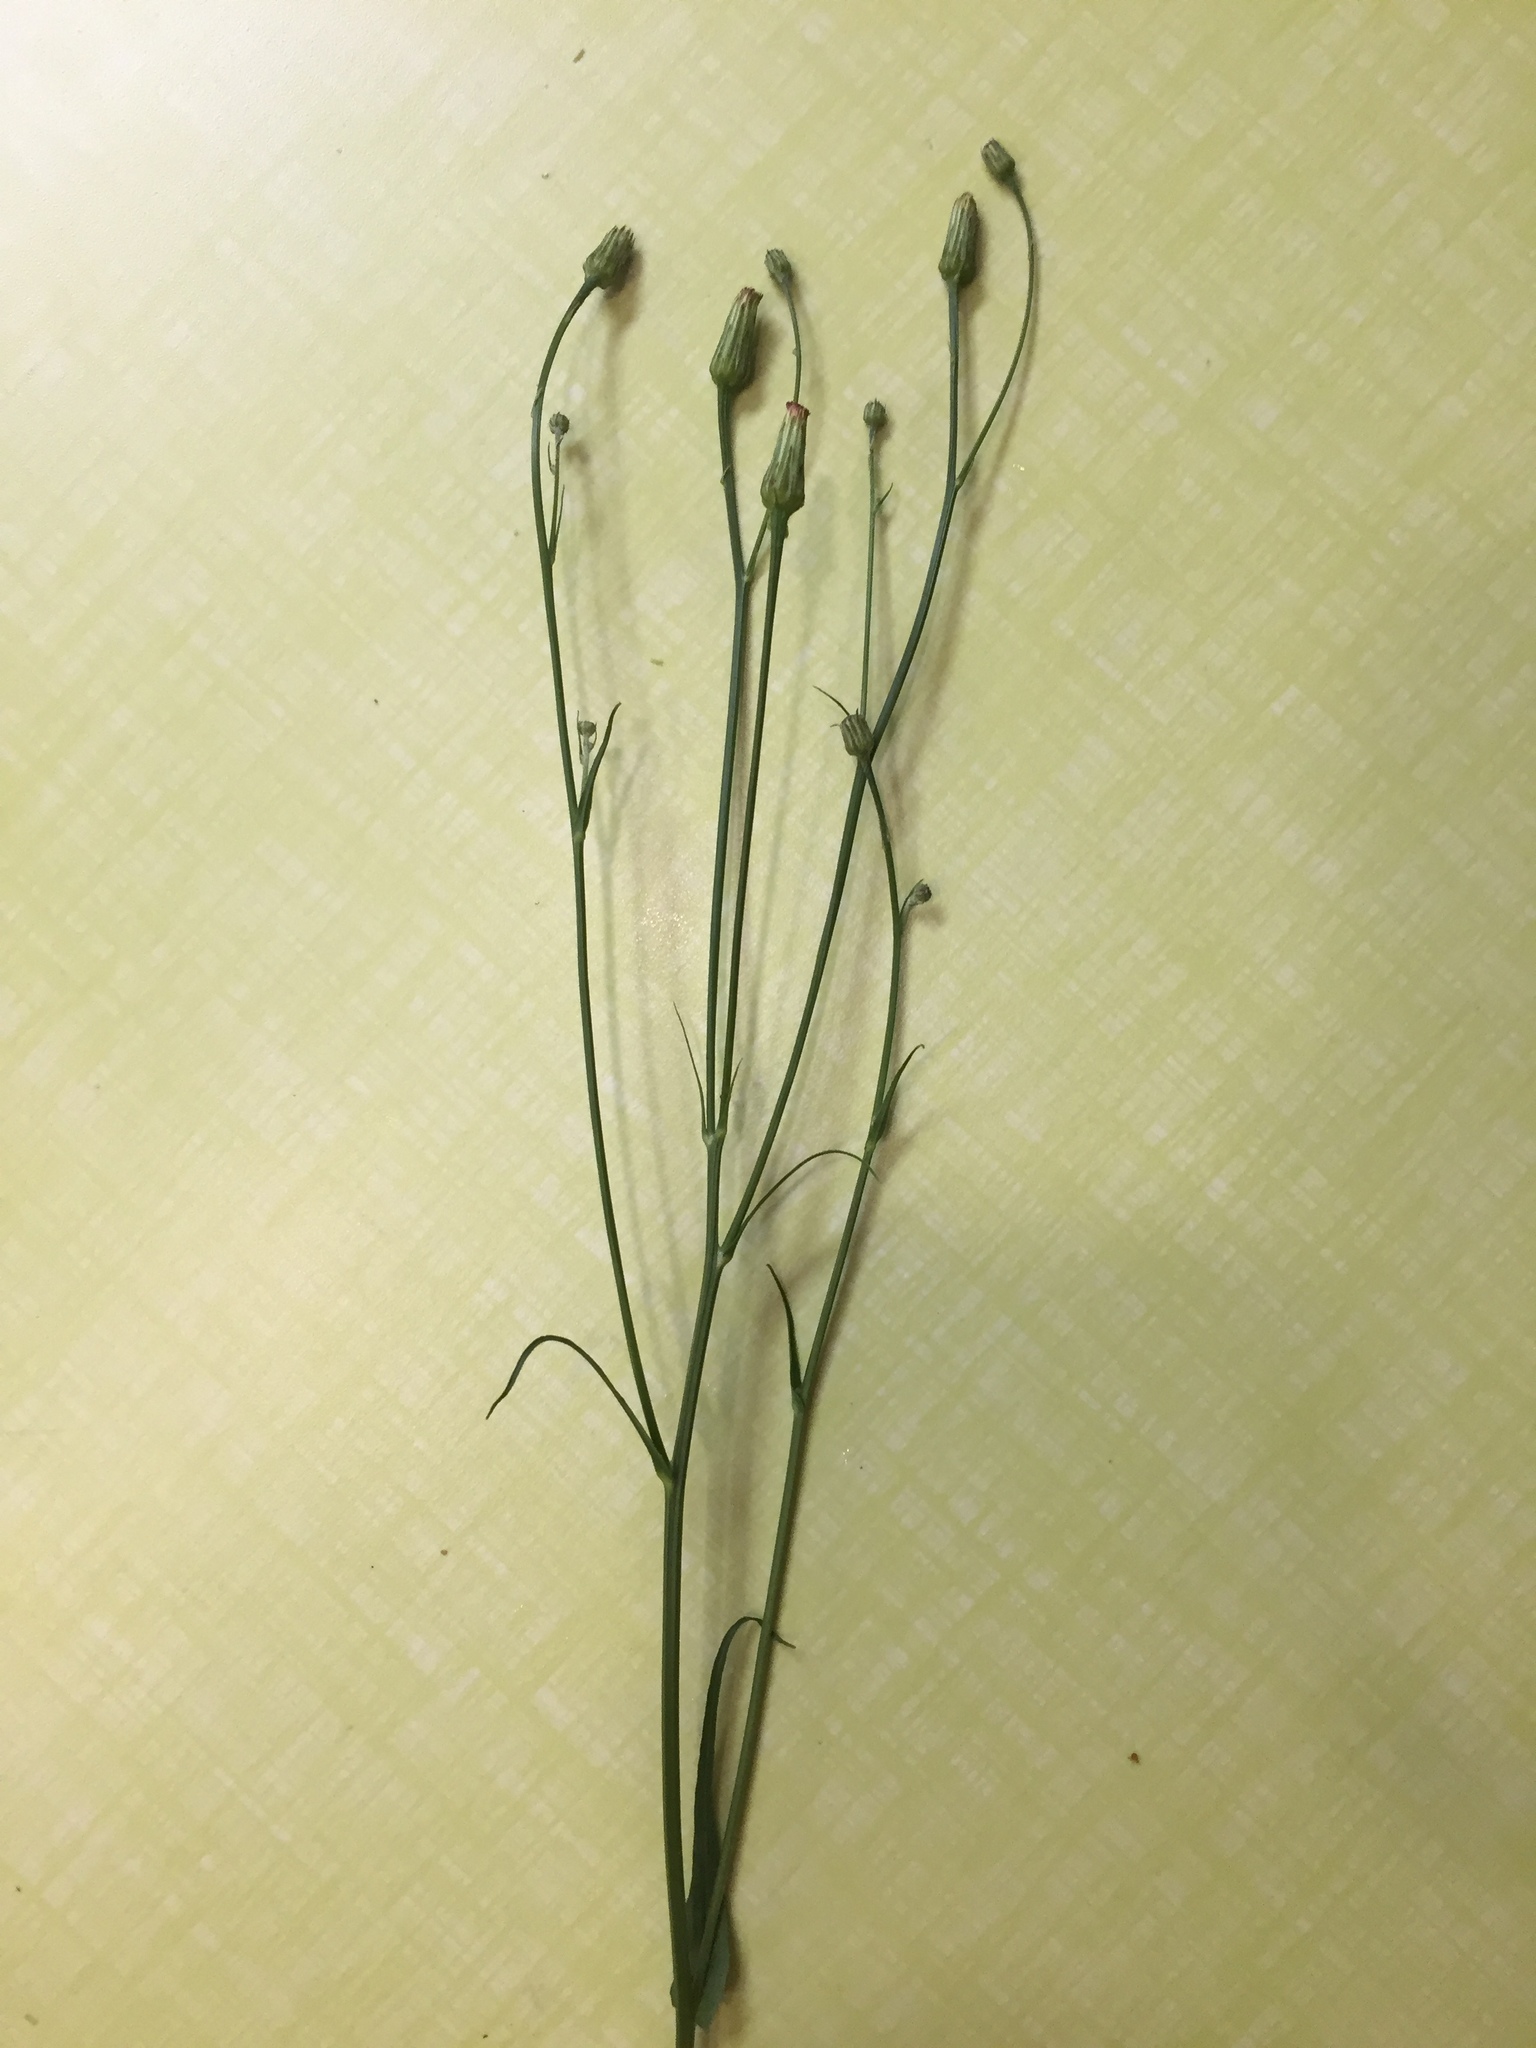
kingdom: Plantae
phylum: Tracheophyta
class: Magnoliopsida
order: Asterales
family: Asteraceae
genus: Hypochaeris
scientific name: Hypochaeris chillensis
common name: Brazilian cat's ear
